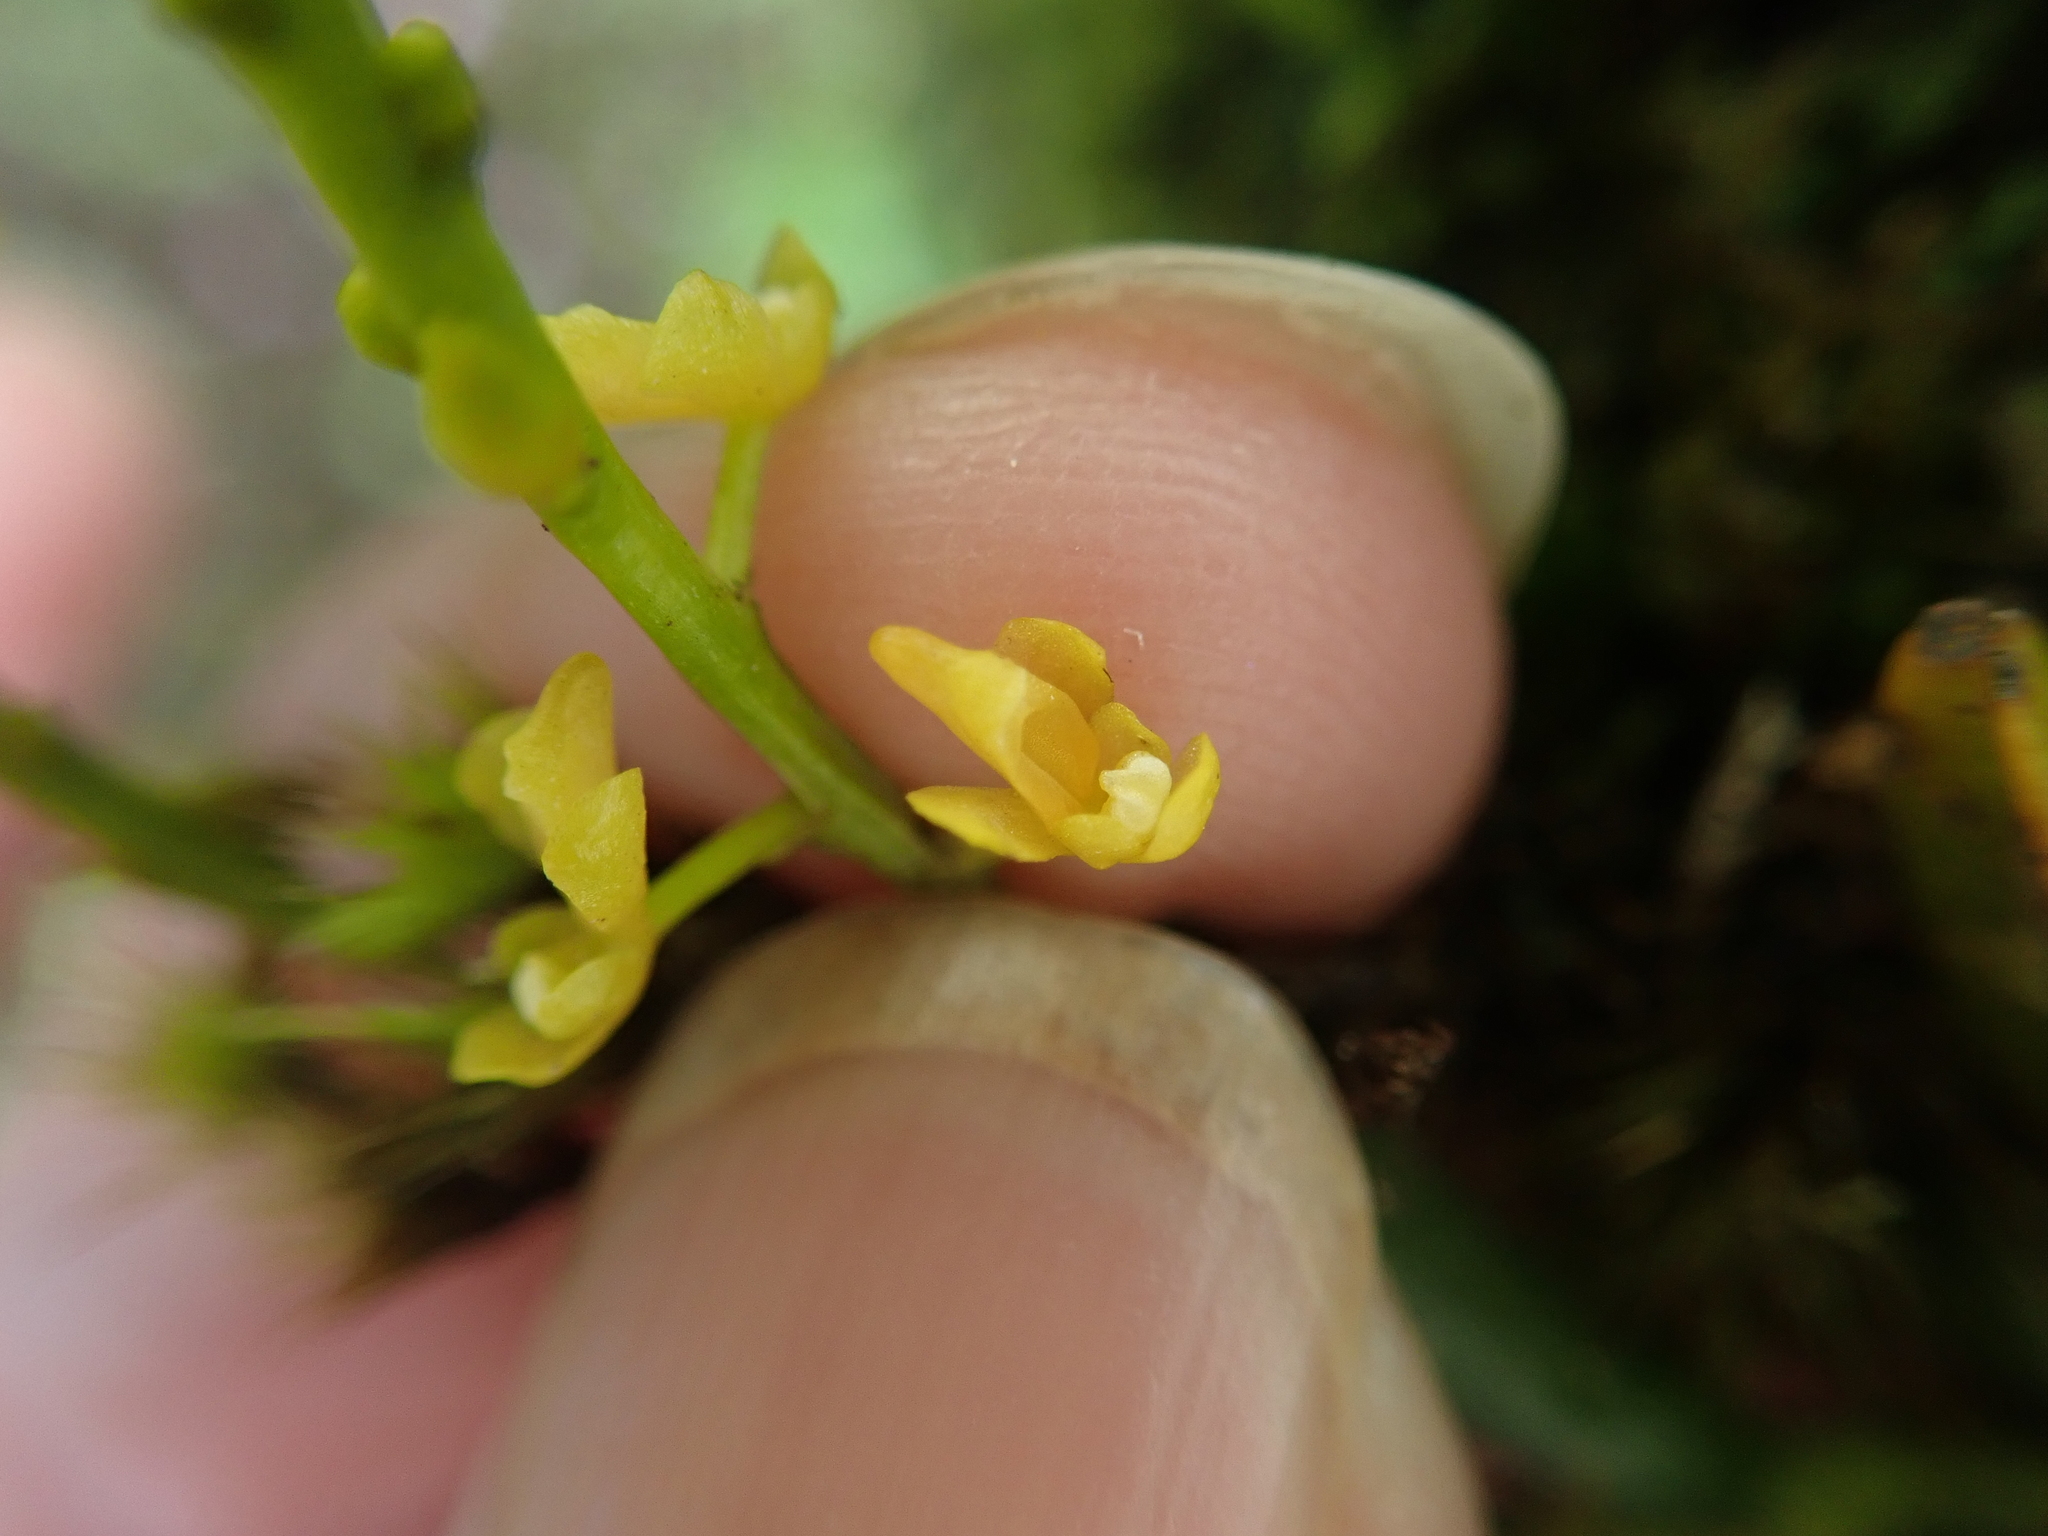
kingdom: Plantae
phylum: Tracheophyta
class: Liliopsida
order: Asparagales
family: Orchidaceae
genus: Porrorhachis
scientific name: Porrorhachis galbina
